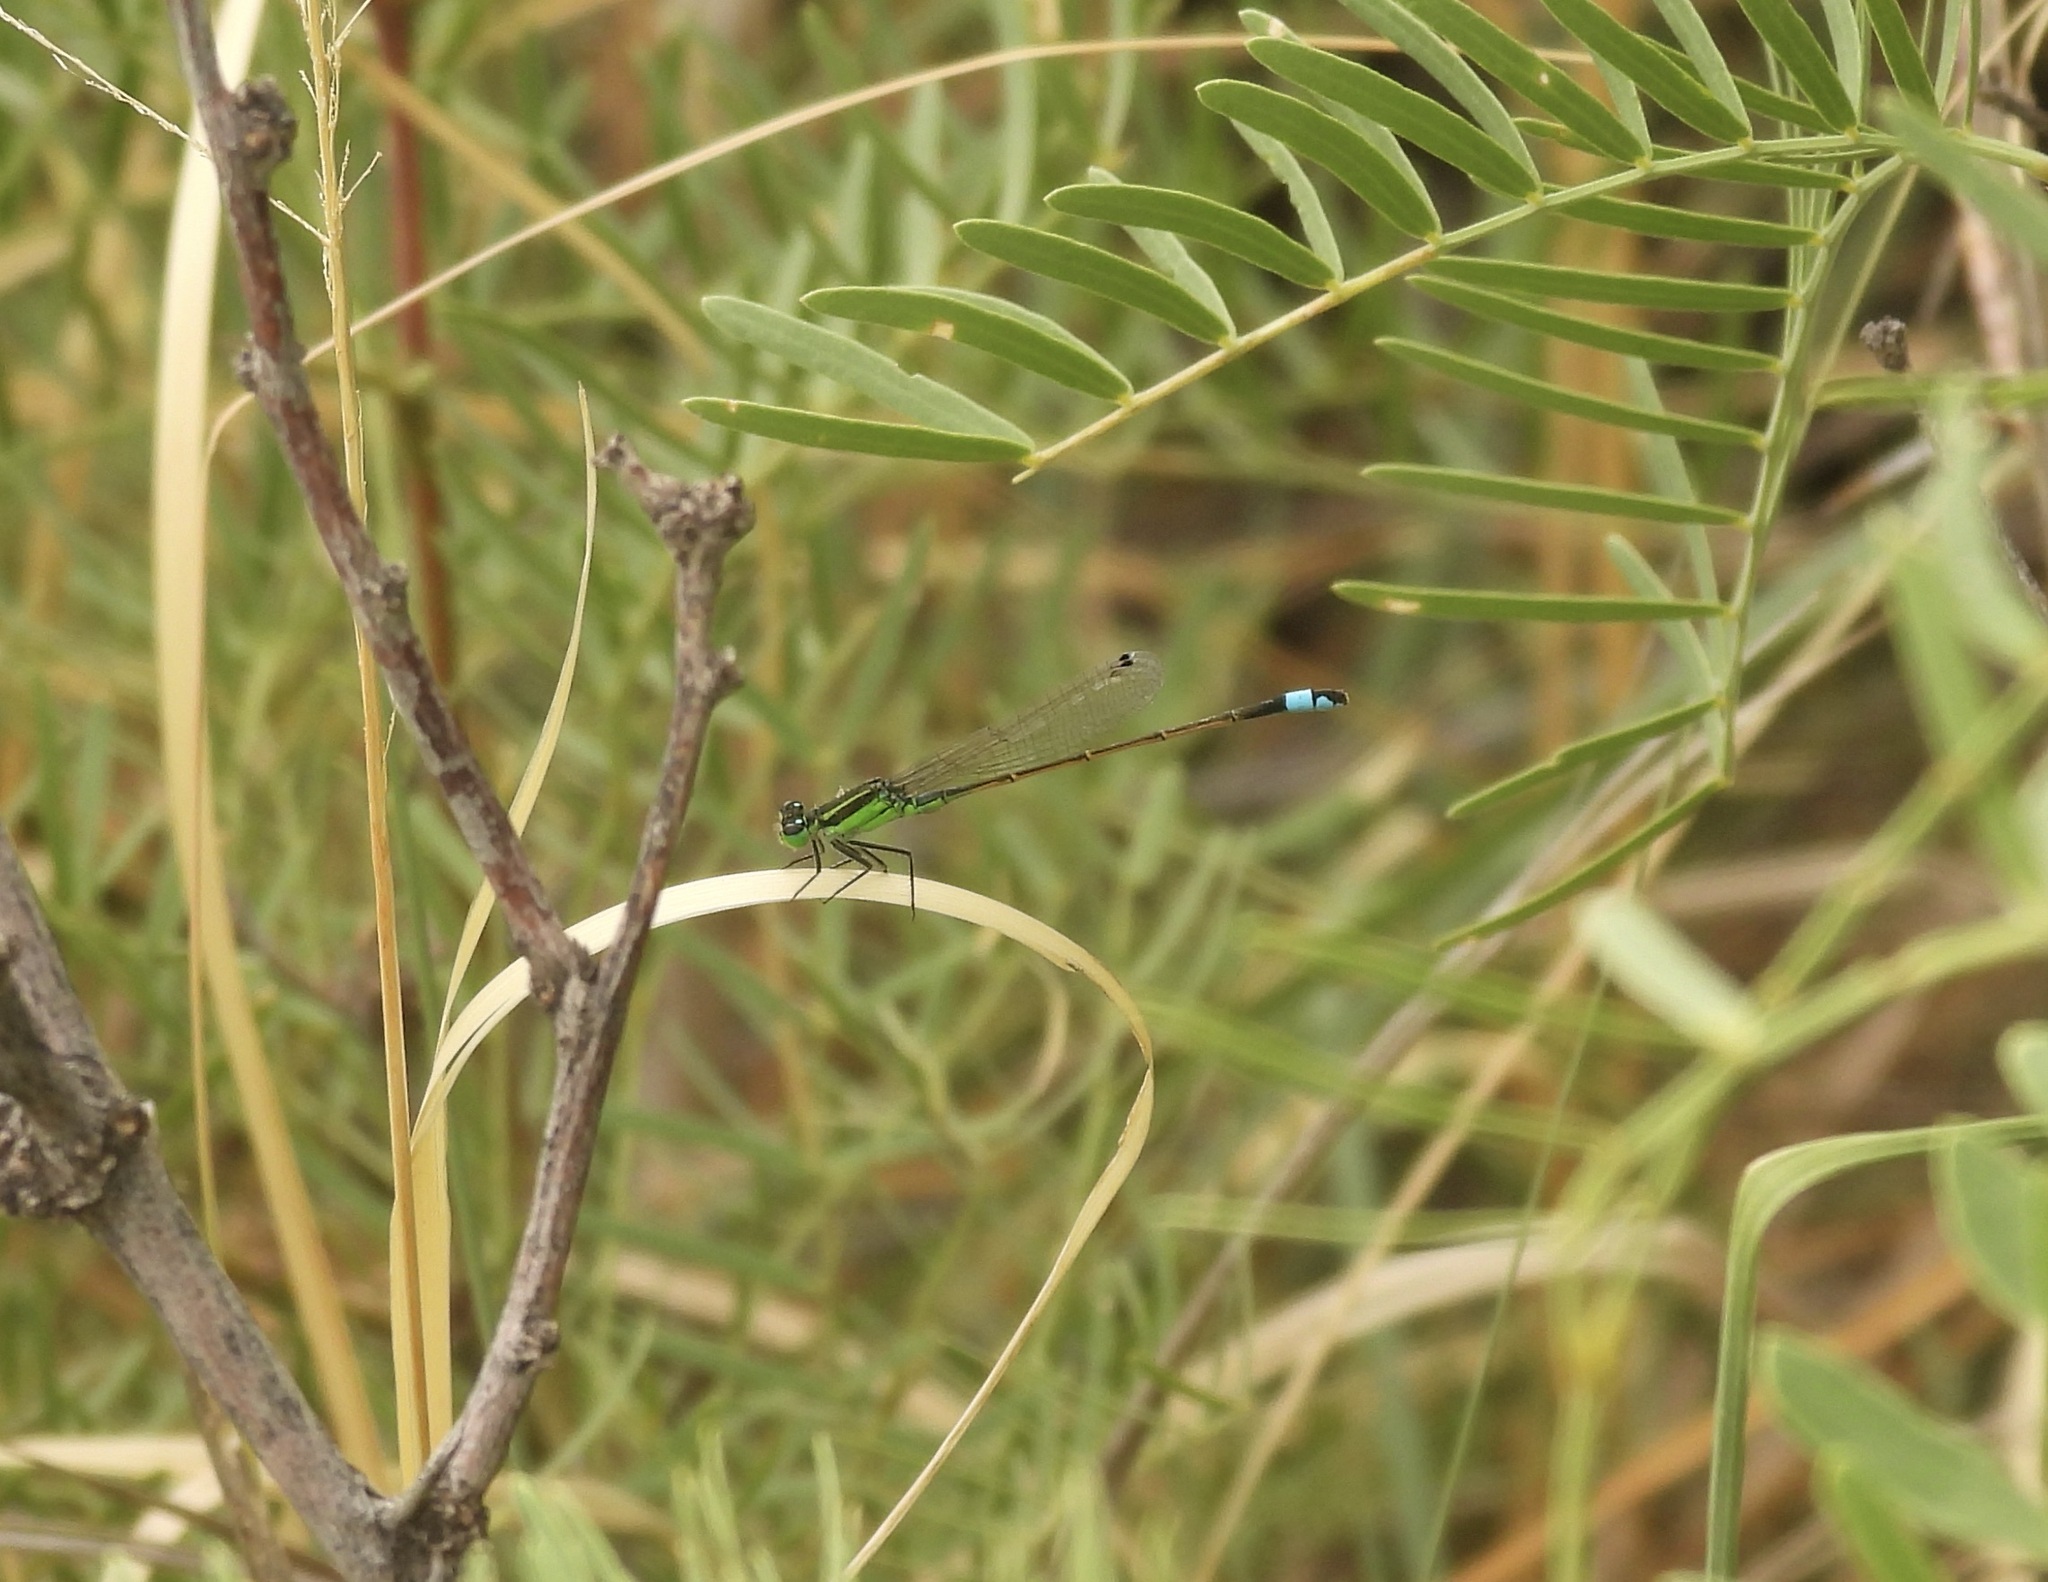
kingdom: Animalia
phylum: Arthropoda
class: Insecta
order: Odonata
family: Coenagrionidae
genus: Ischnura
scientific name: Ischnura ramburii
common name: Rambur's forktail
